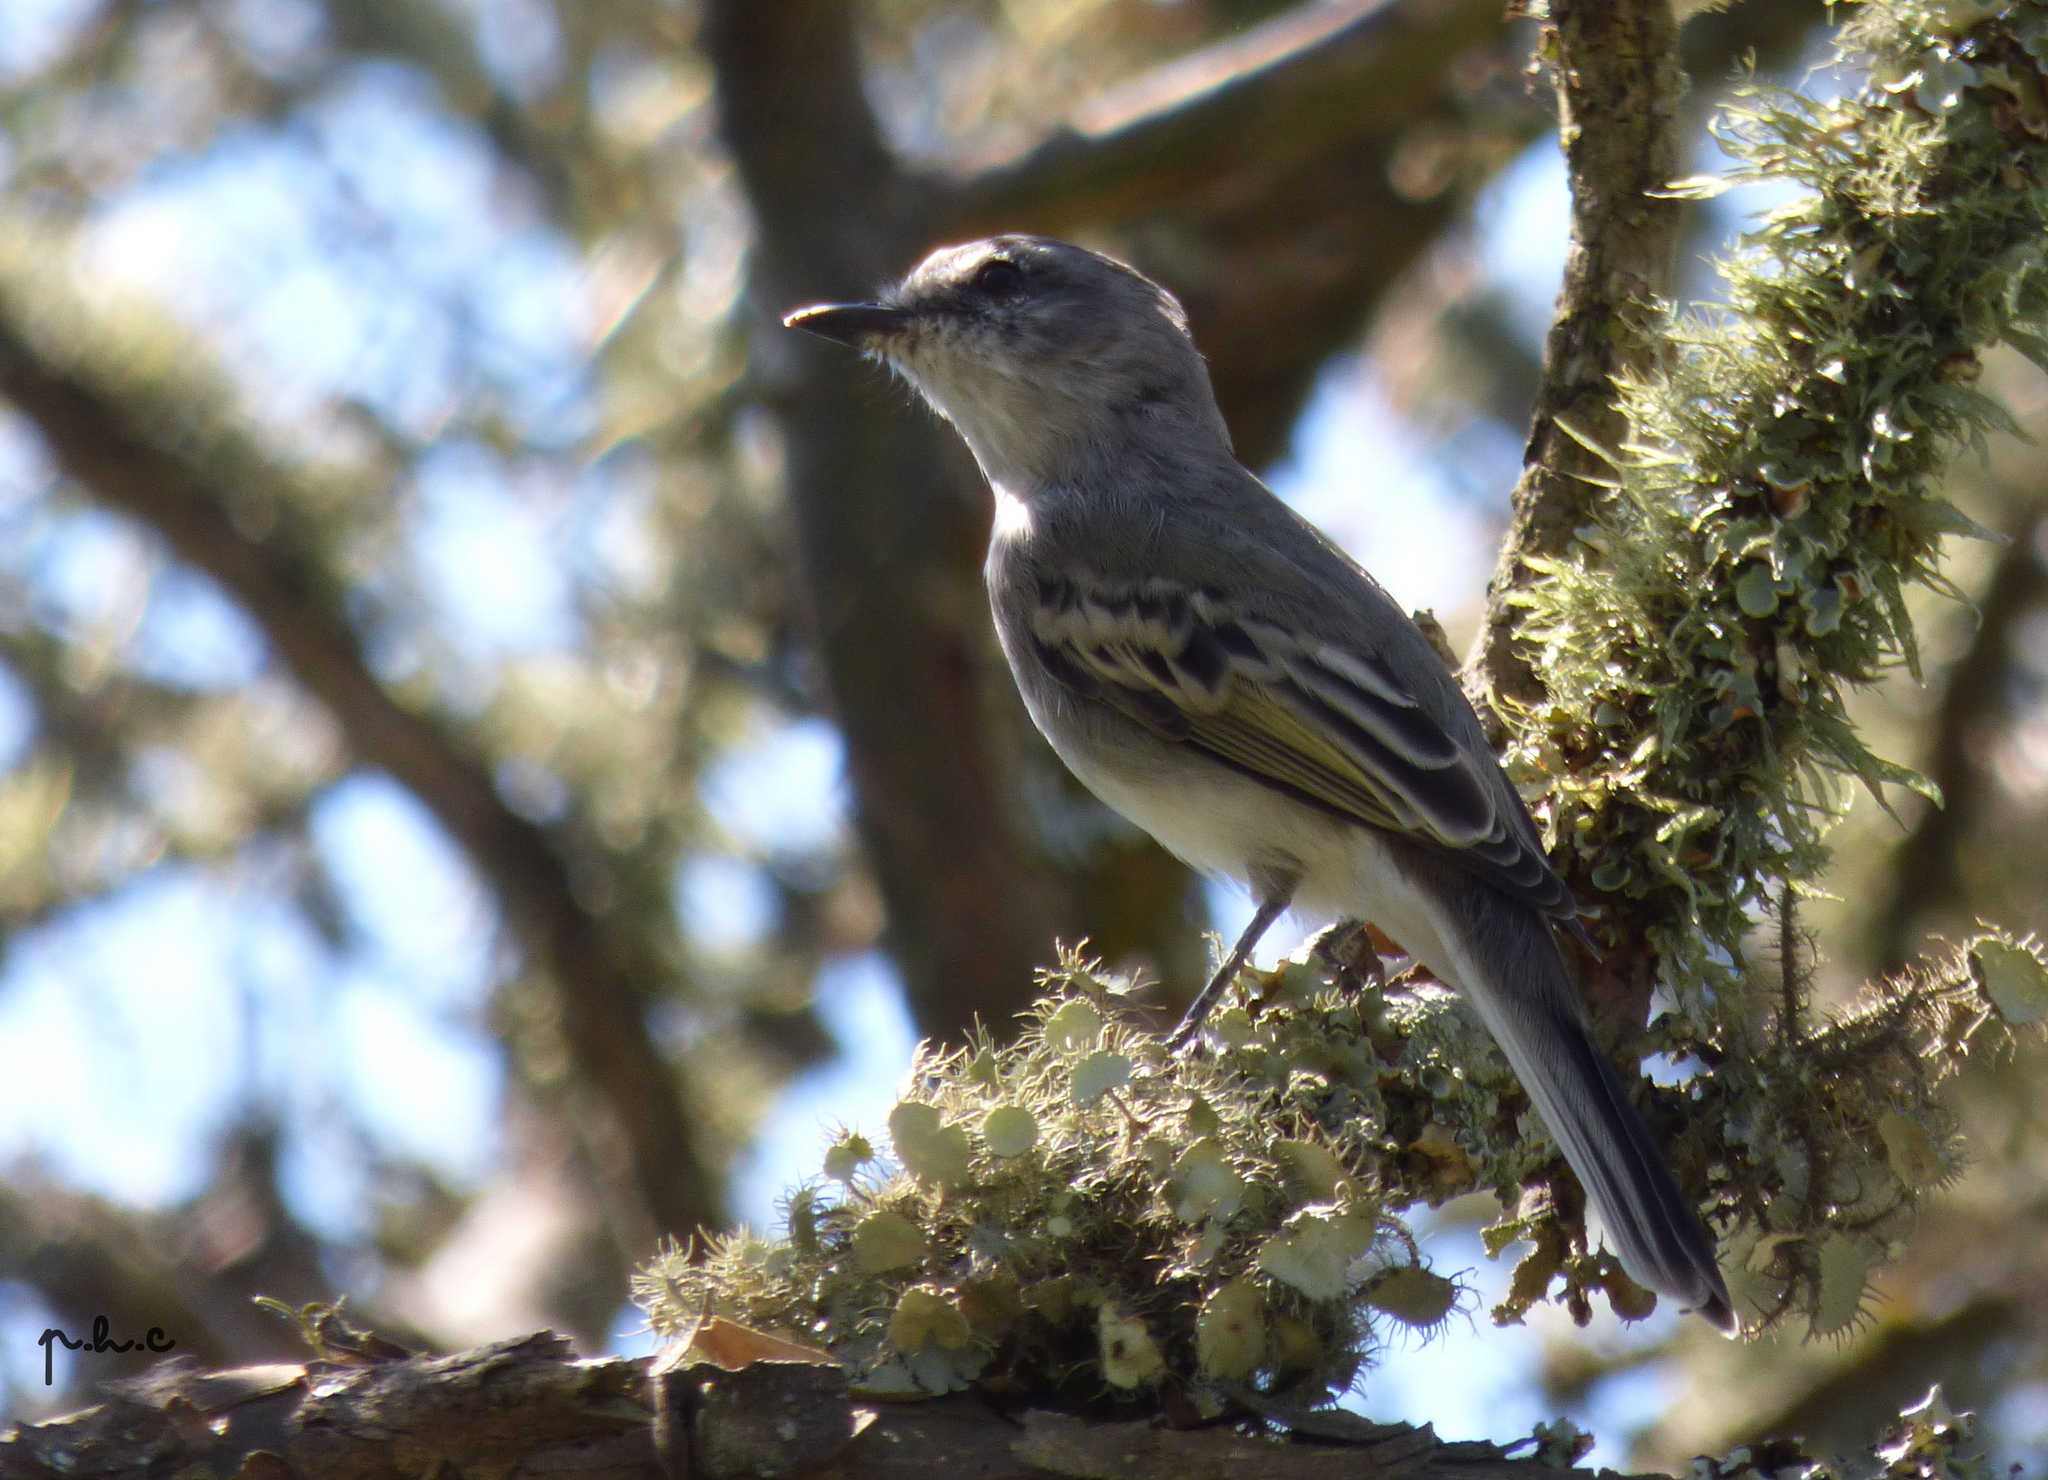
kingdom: Animalia
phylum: Chordata
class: Aves
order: Passeriformes
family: Tyrannidae
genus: Suiriri
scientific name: Suiriri suiriri
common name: Suiriri flycatcher
